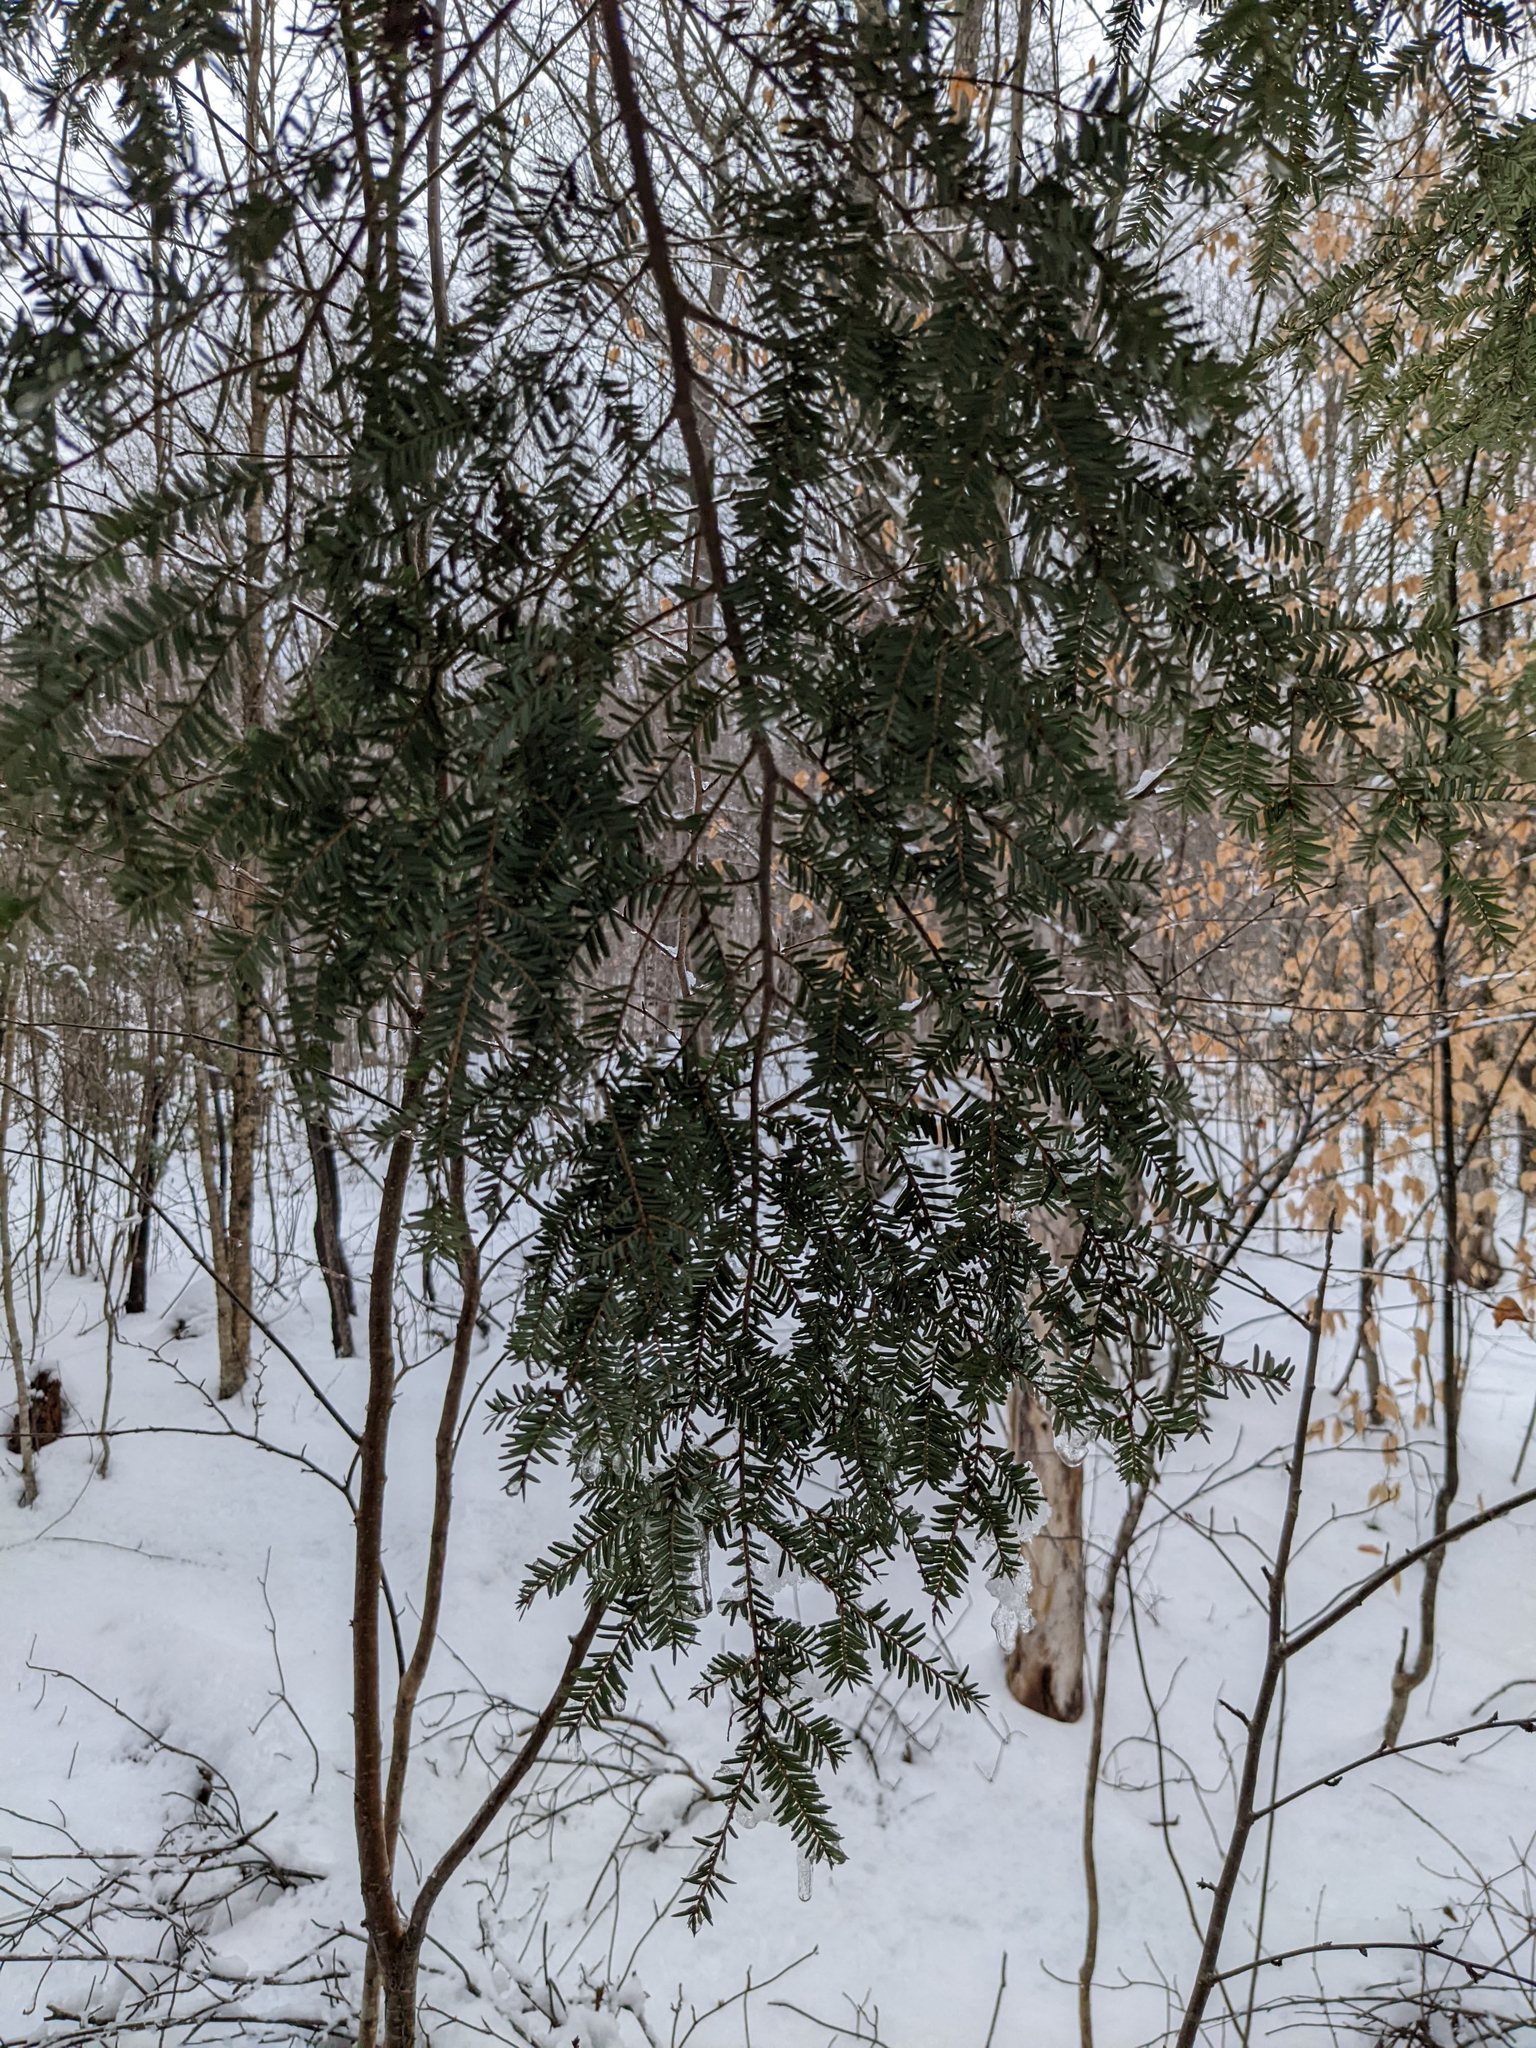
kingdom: Plantae
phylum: Tracheophyta
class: Pinopsida
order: Pinales
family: Pinaceae
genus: Tsuga
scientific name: Tsuga canadensis
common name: Eastern hemlock
